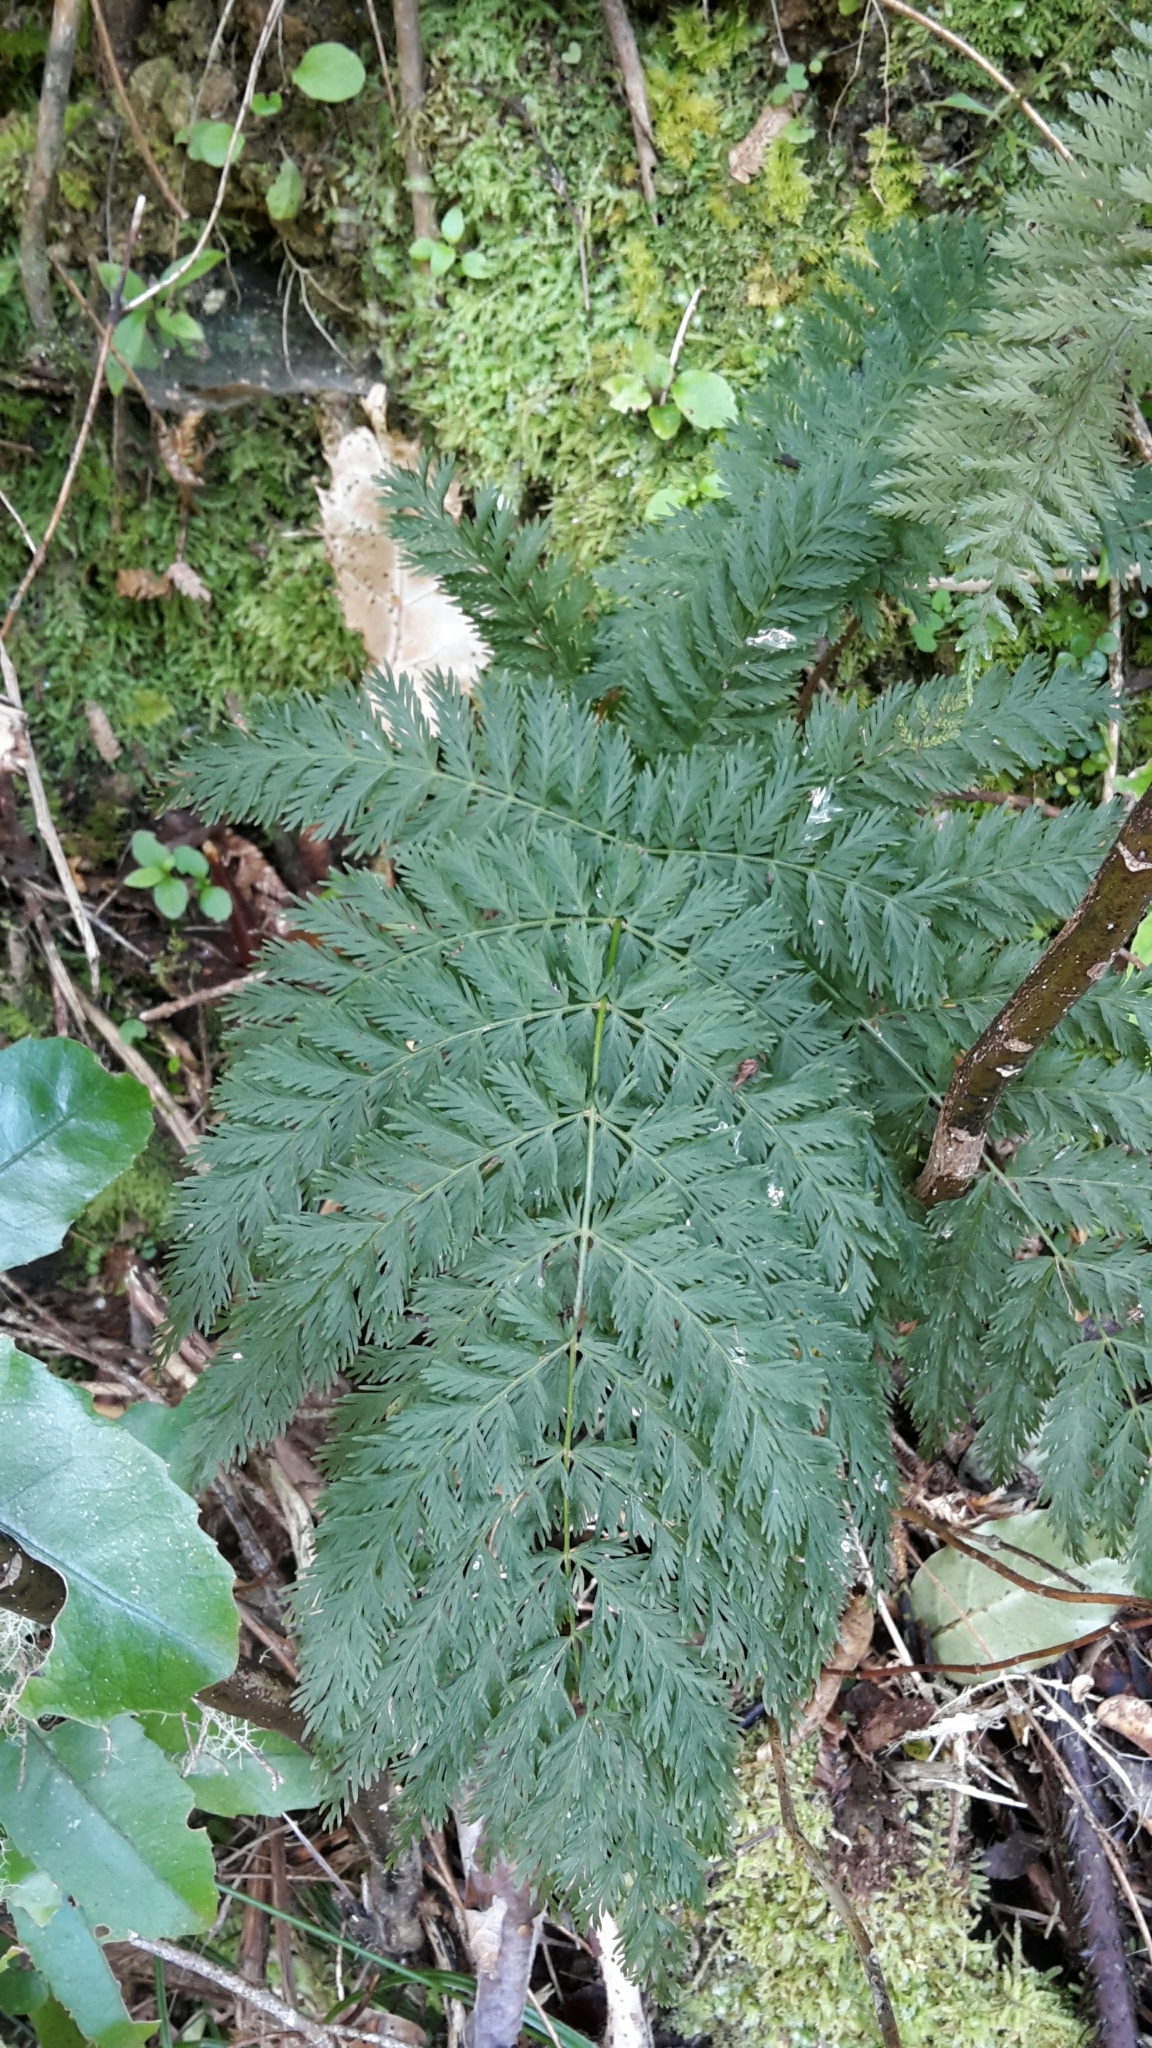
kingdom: Plantae
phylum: Tracheophyta
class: Polypodiopsida
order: Osmundales
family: Osmundaceae
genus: Leptopteris
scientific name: Leptopteris hymenophylloides
